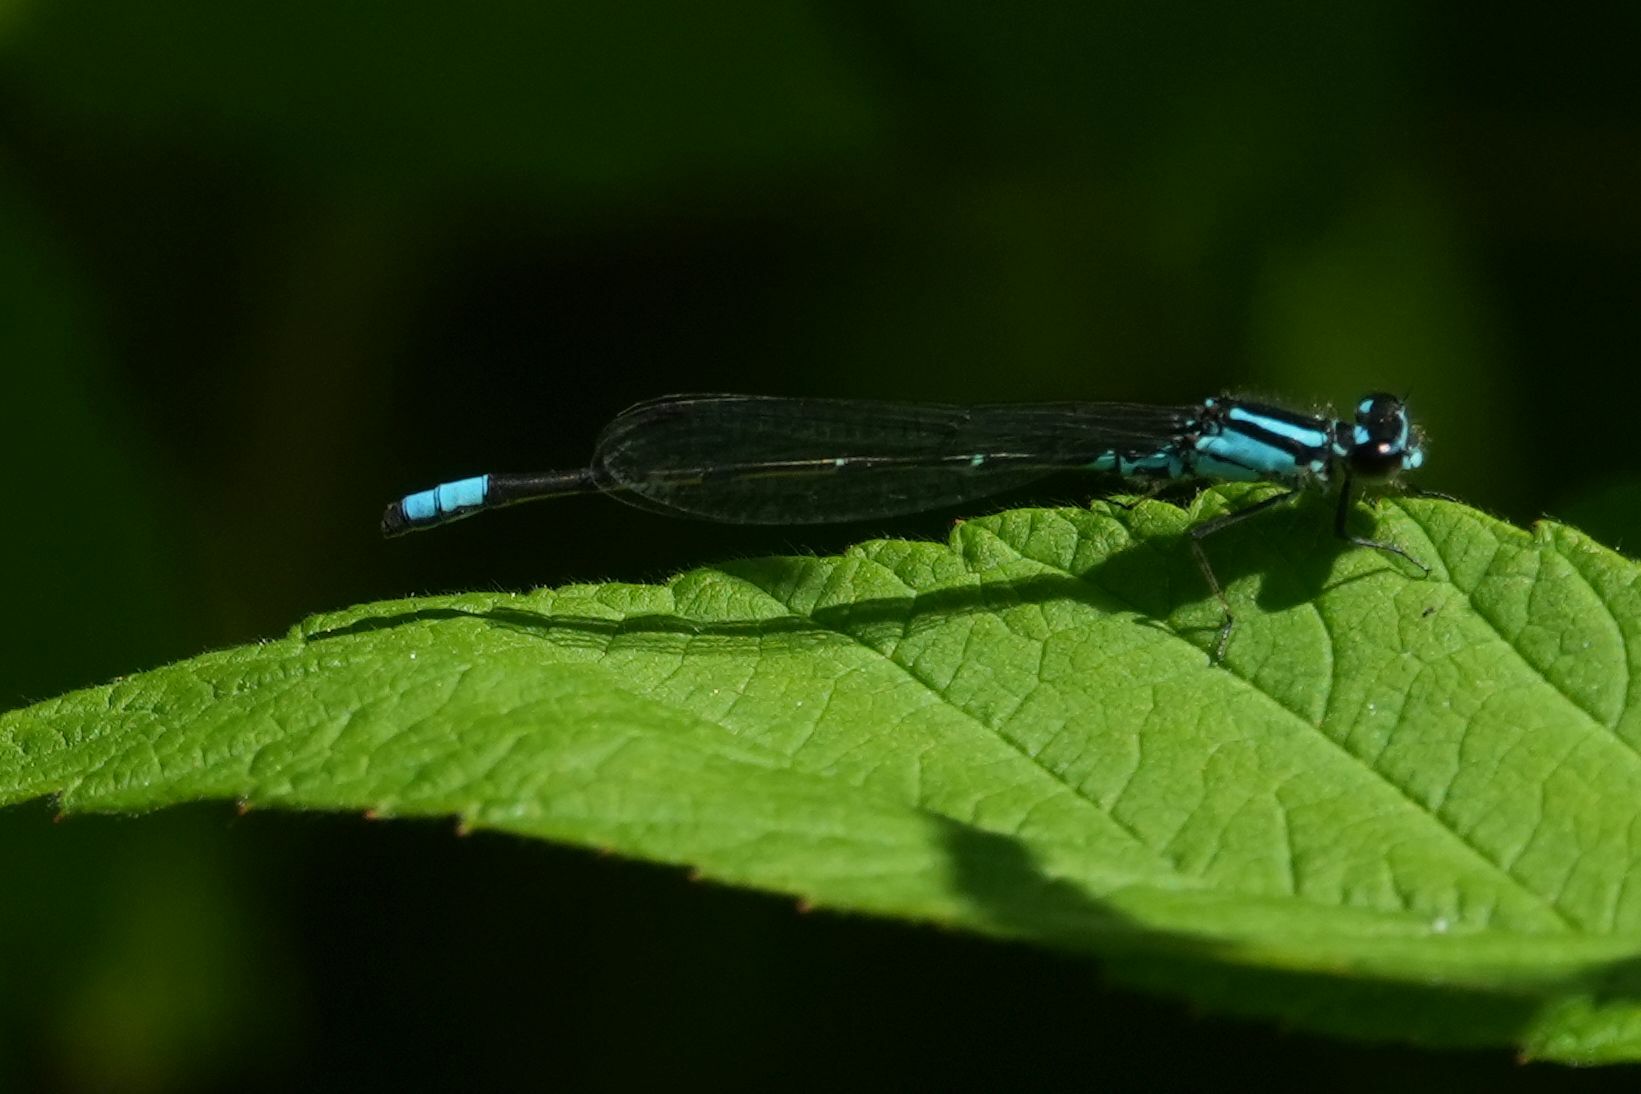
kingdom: Animalia
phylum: Arthropoda
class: Insecta
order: Odonata
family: Coenagrionidae
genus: Enallagma
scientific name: Enallagma geminatum
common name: Skimming bluet
